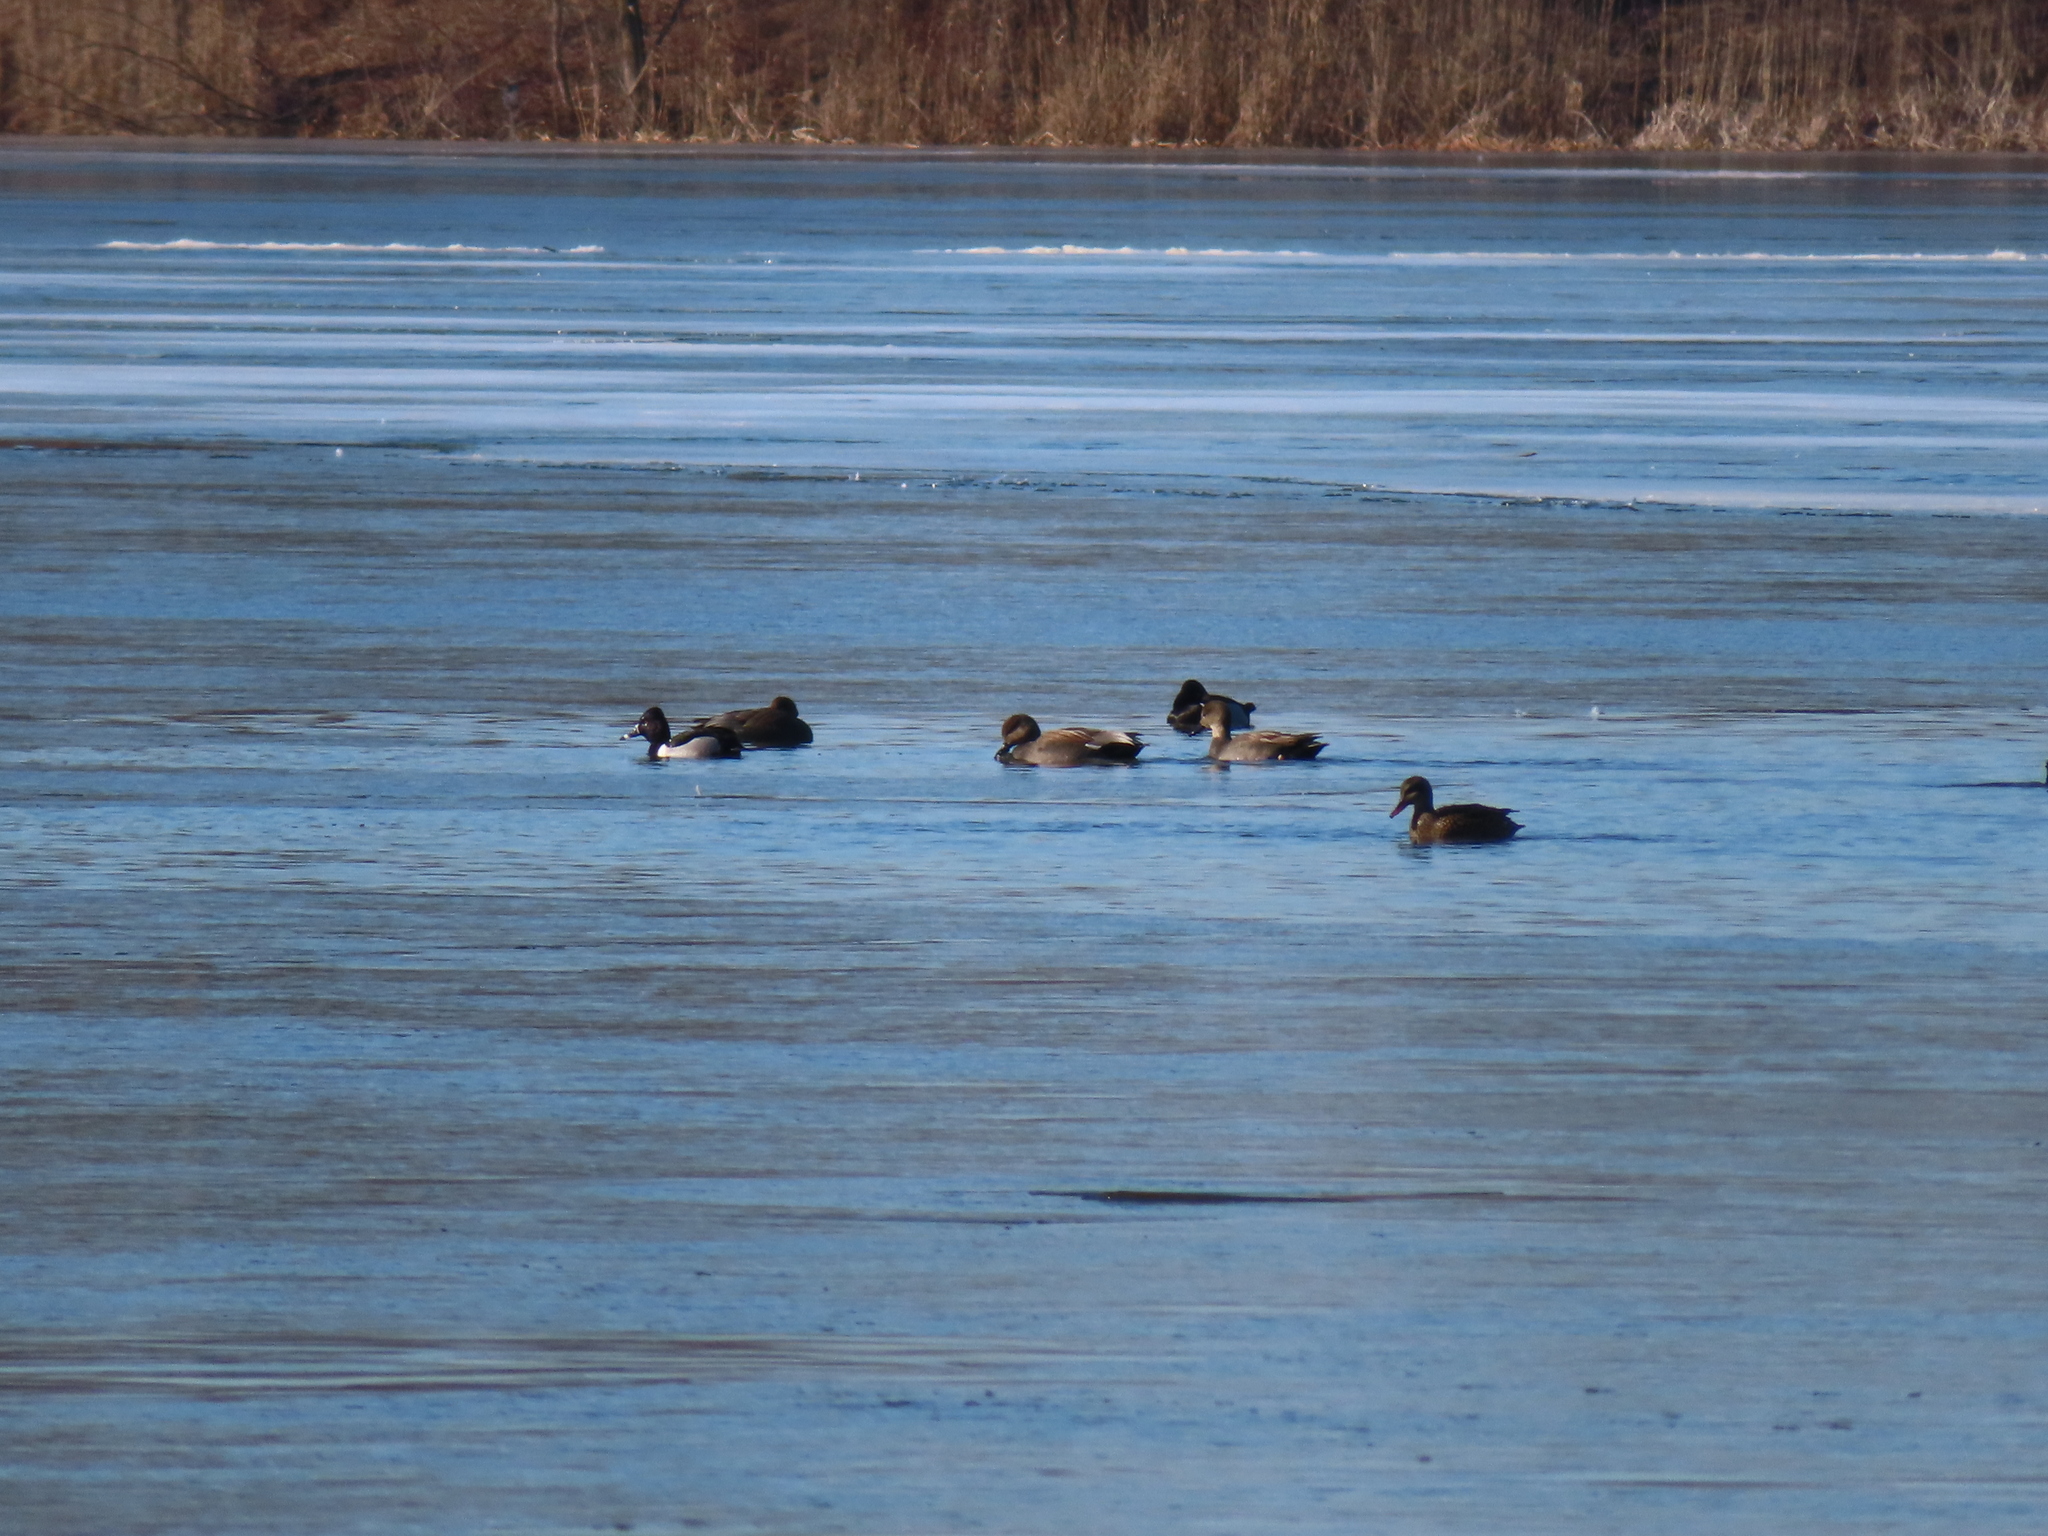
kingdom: Animalia
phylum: Chordata
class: Aves
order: Anseriformes
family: Anatidae
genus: Aythya
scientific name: Aythya collaris
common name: Ring-necked duck
